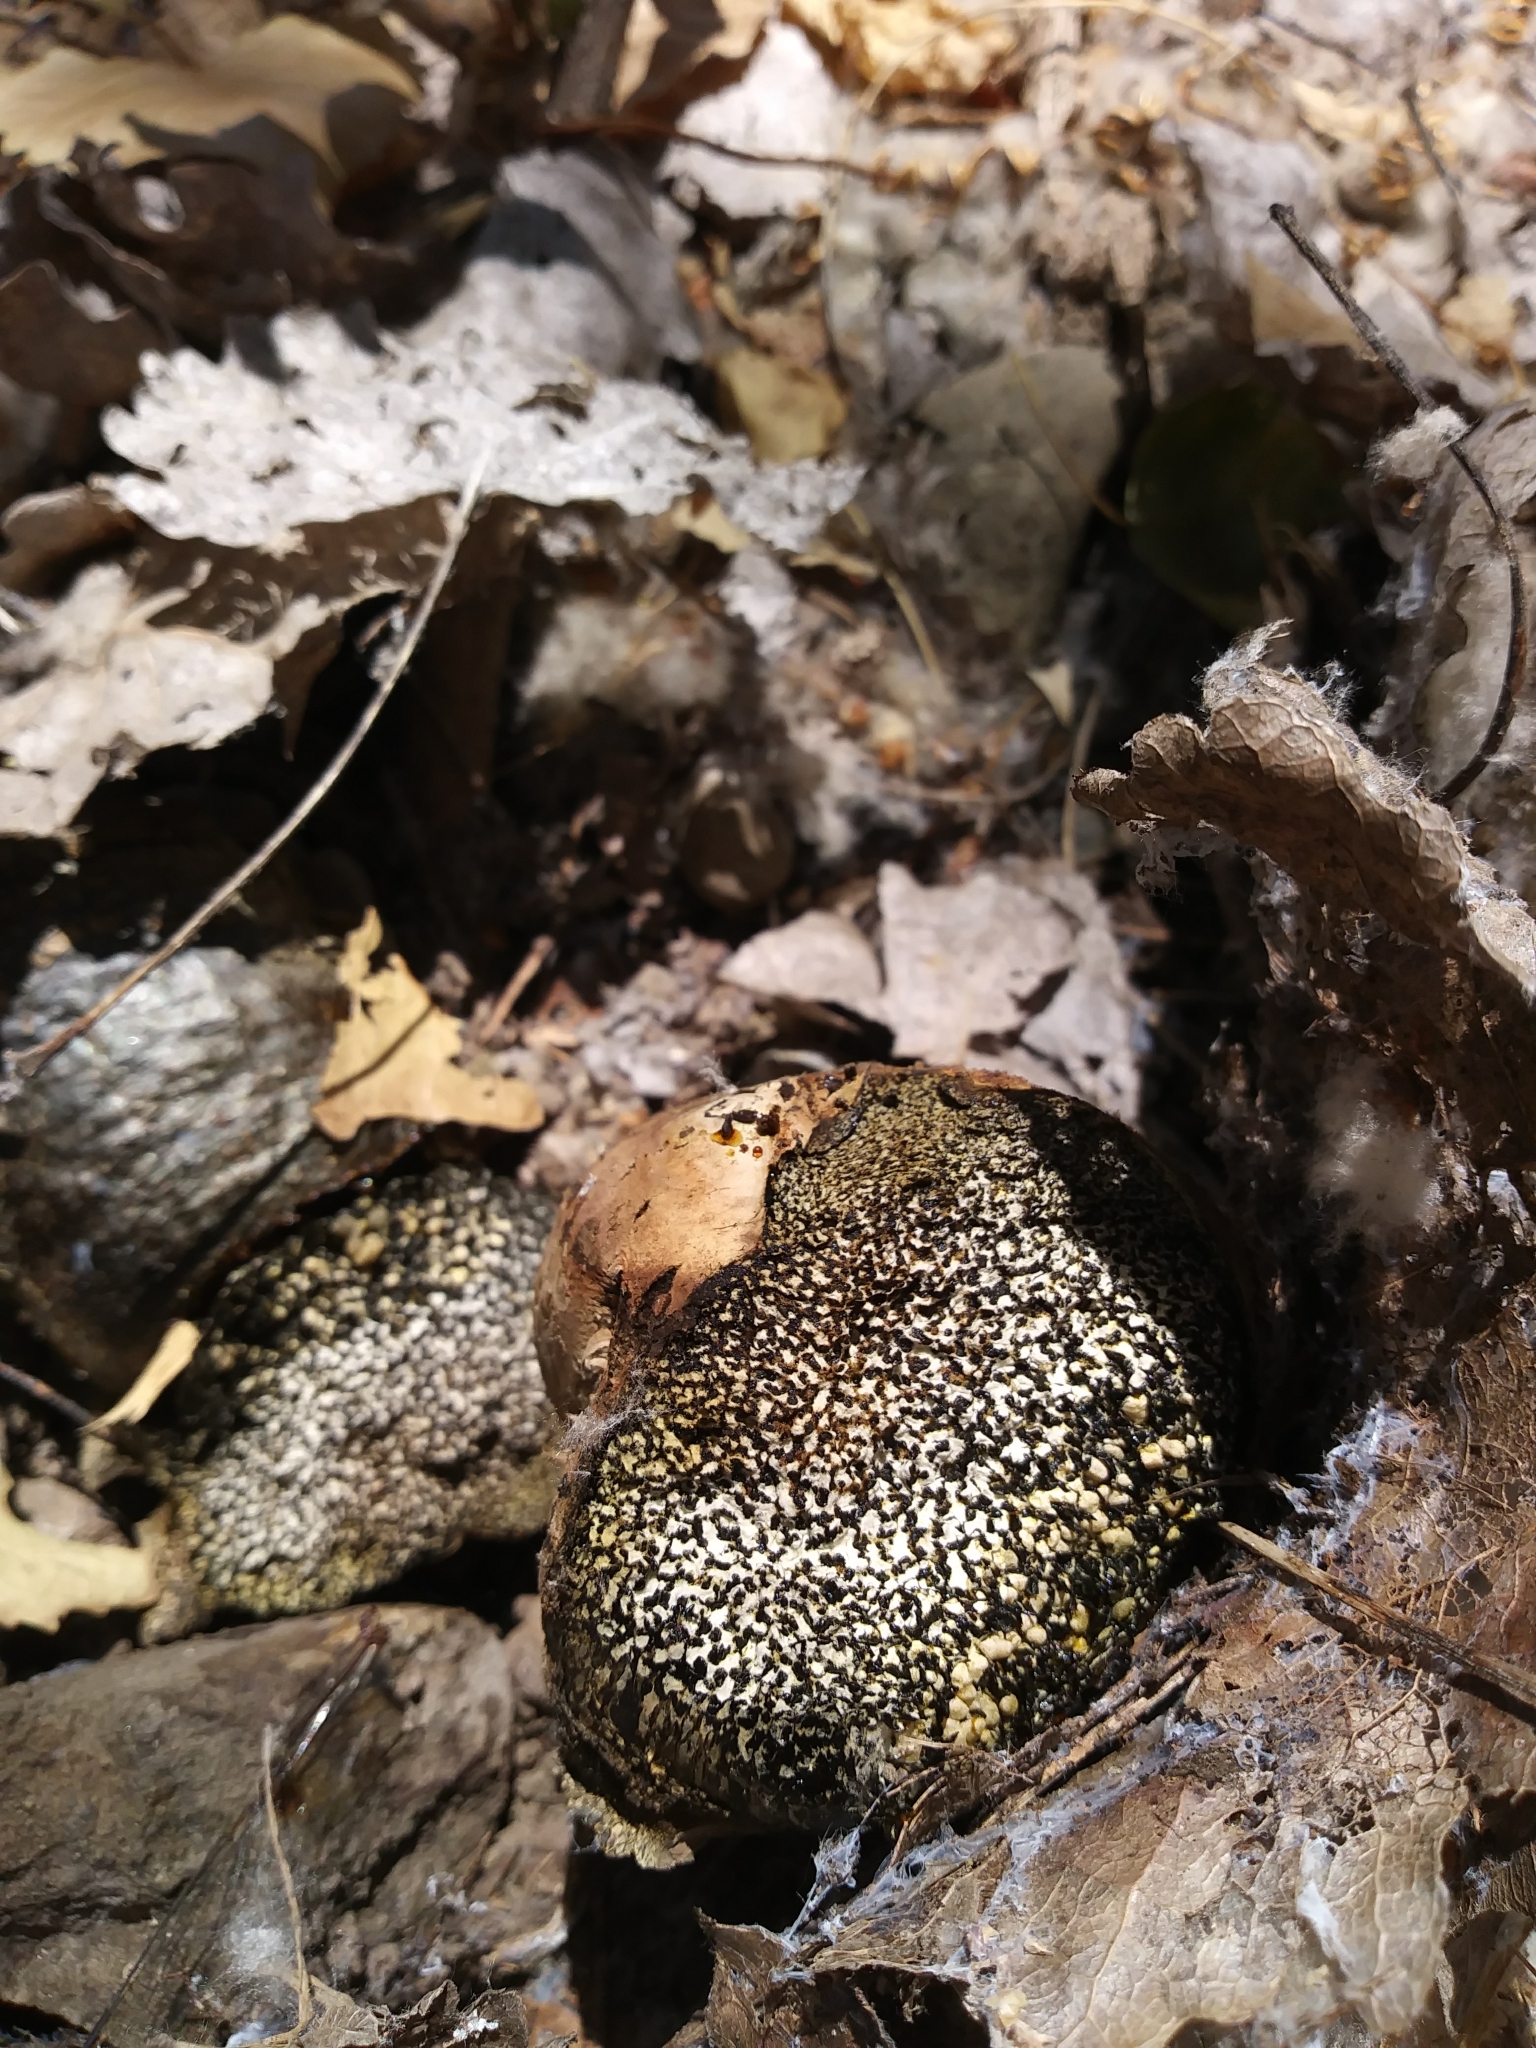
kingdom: Fungi
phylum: Basidiomycota
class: Agaricomycetes
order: Boletales
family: Sclerodermataceae
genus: Pisolithus
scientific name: Pisolithus arhizus
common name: Dyeball
